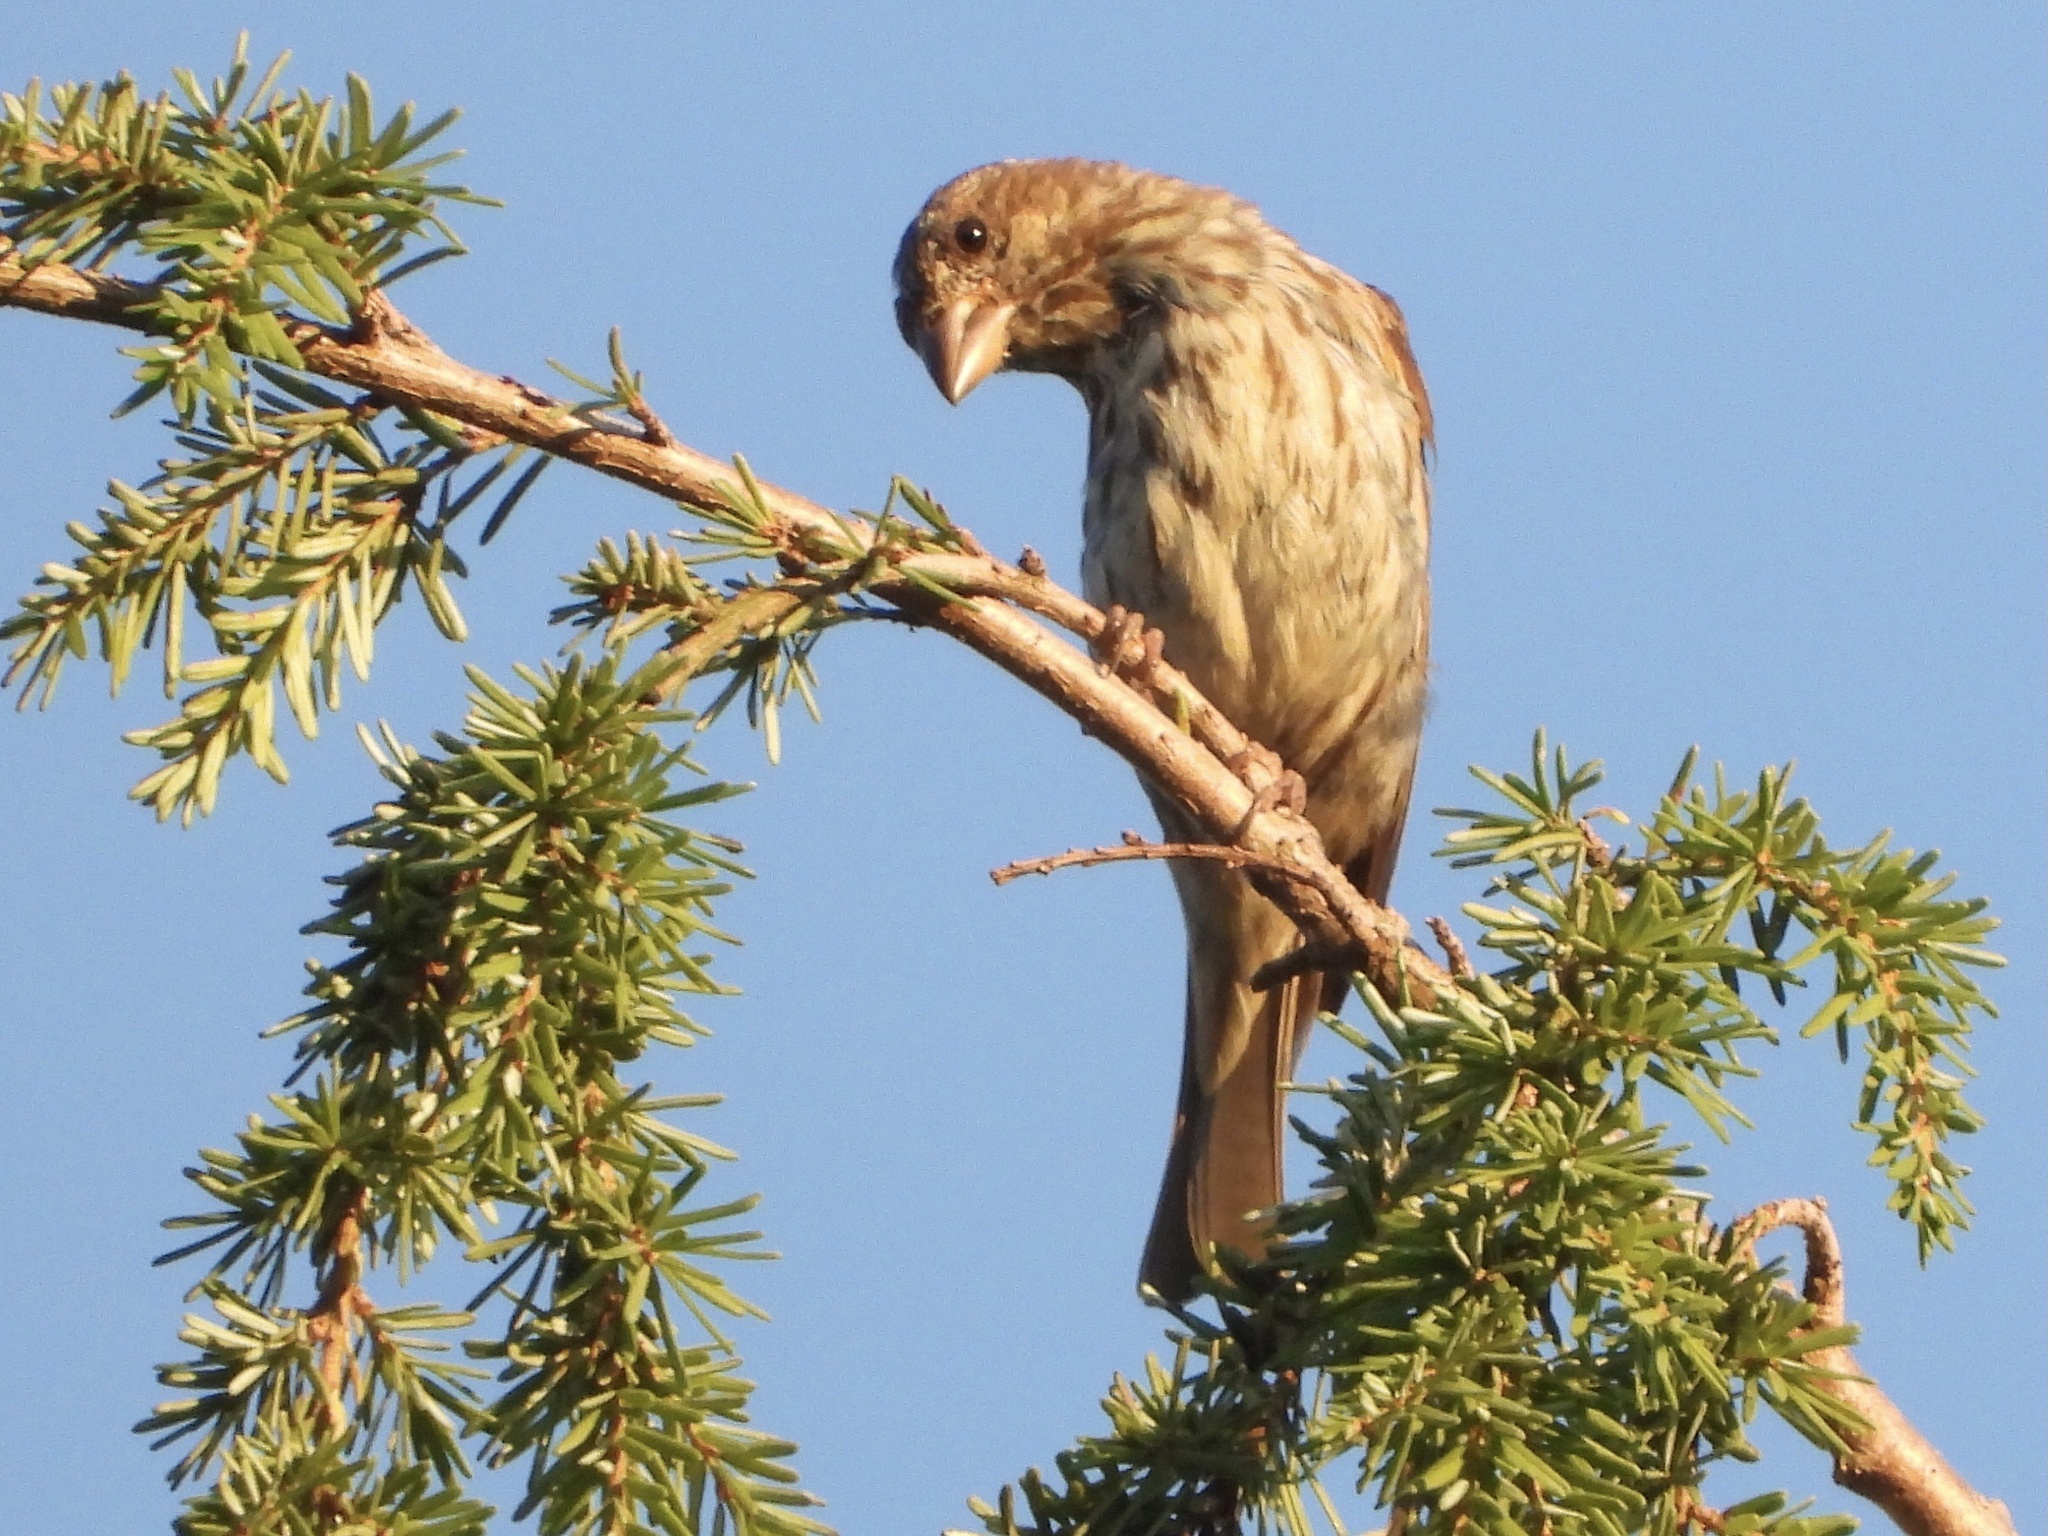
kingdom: Animalia
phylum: Chordata
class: Aves
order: Passeriformes
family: Fringillidae
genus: Haemorhous
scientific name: Haemorhous purpureus
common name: Purple finch
